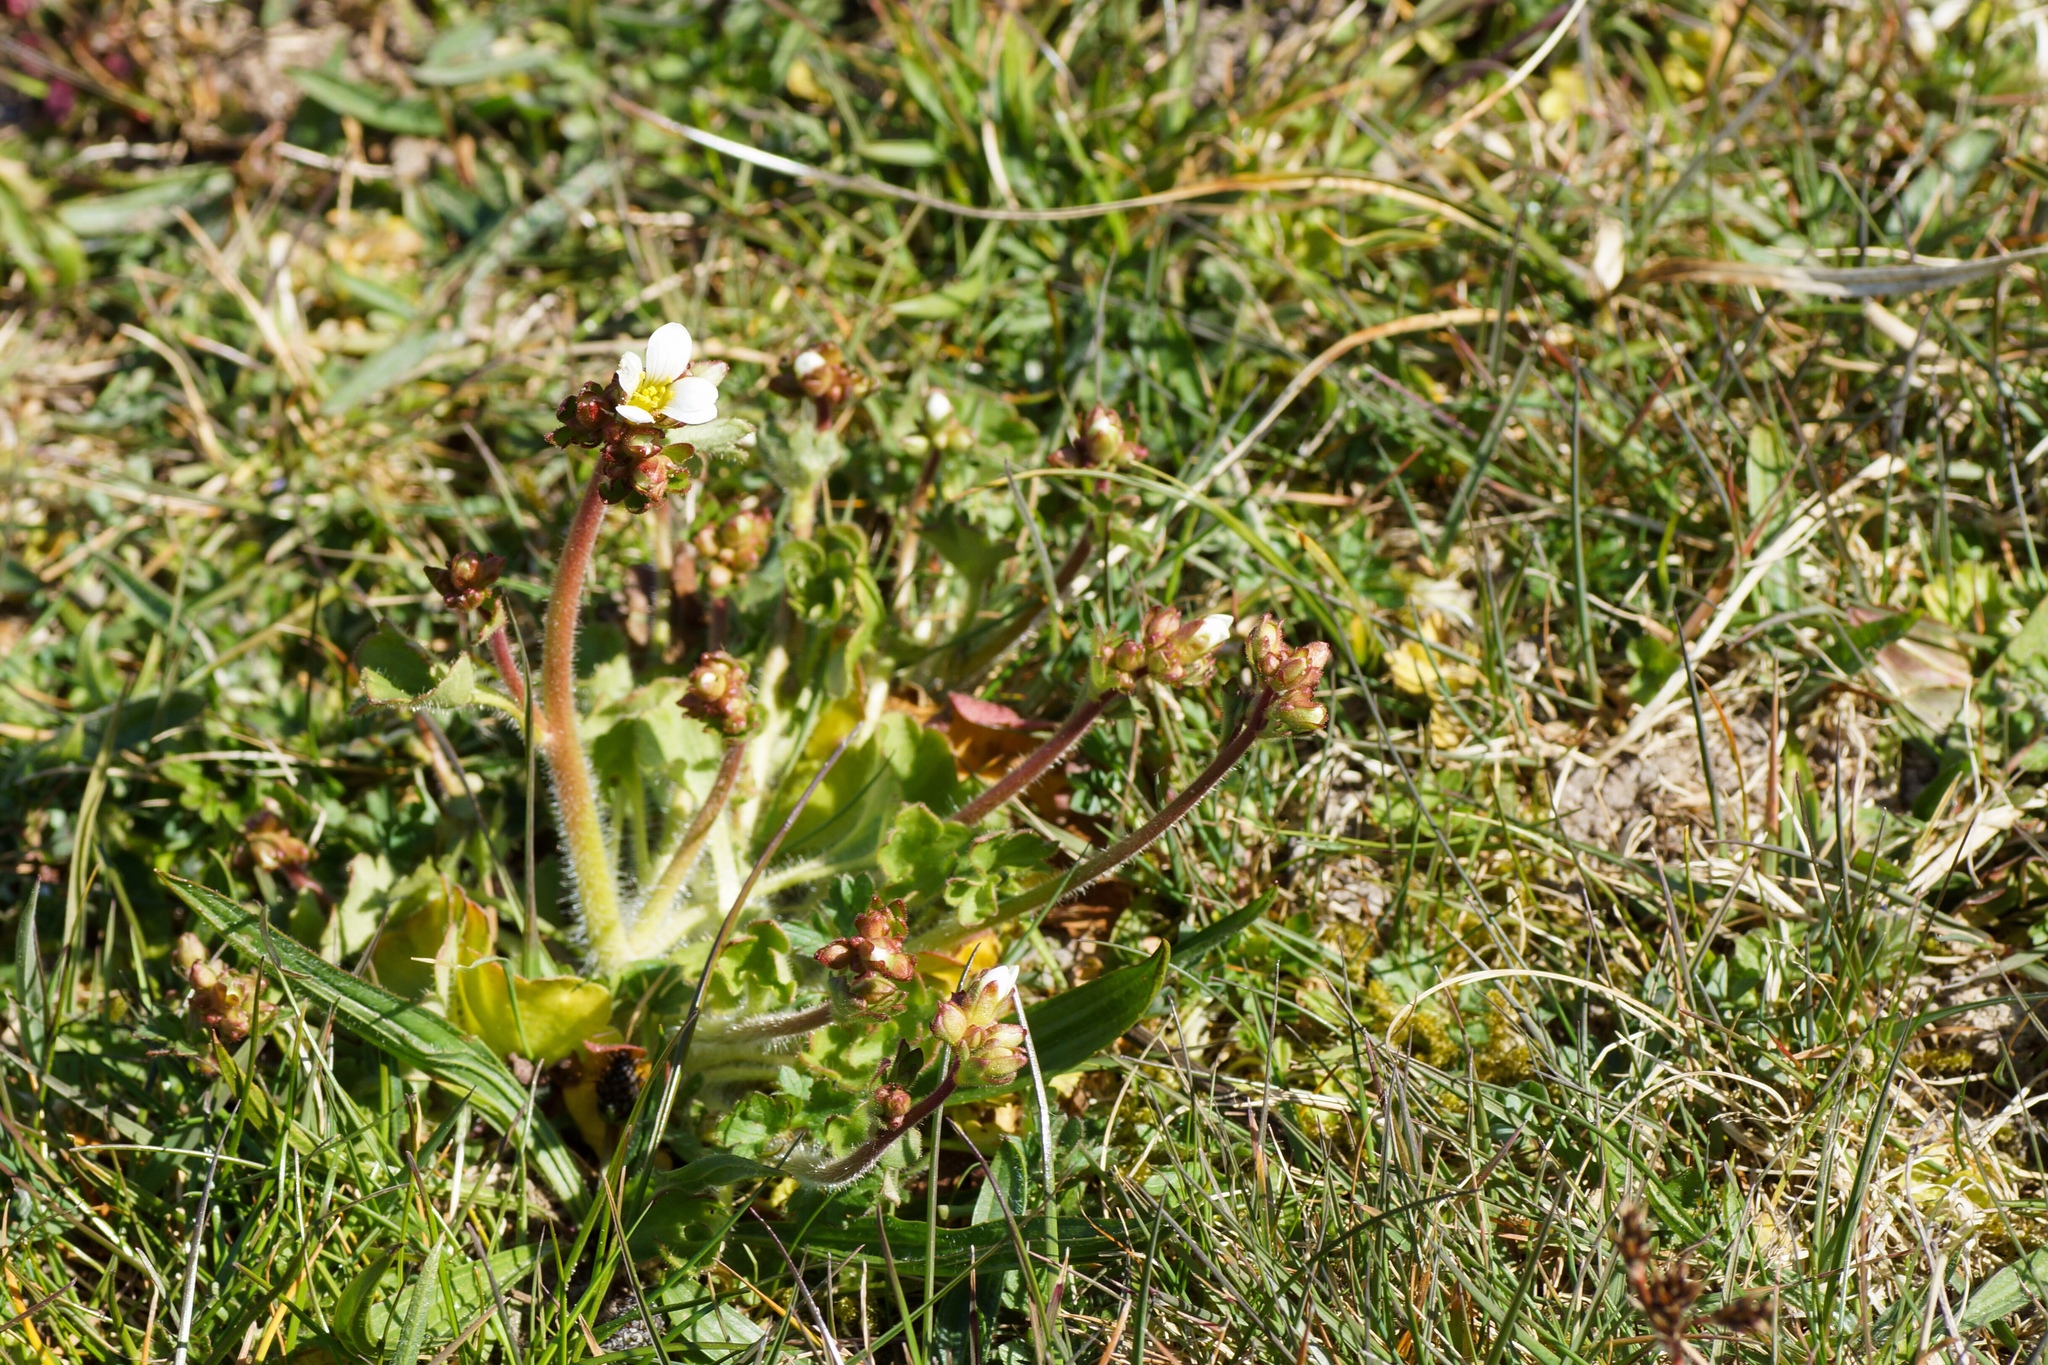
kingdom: Plantae
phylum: Tracheophyta
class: Magnoliopsida
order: Saxifragales
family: Saxifragaceae
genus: Saxifraga
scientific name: Saxifraga granulata
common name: Meadow saxifrage
